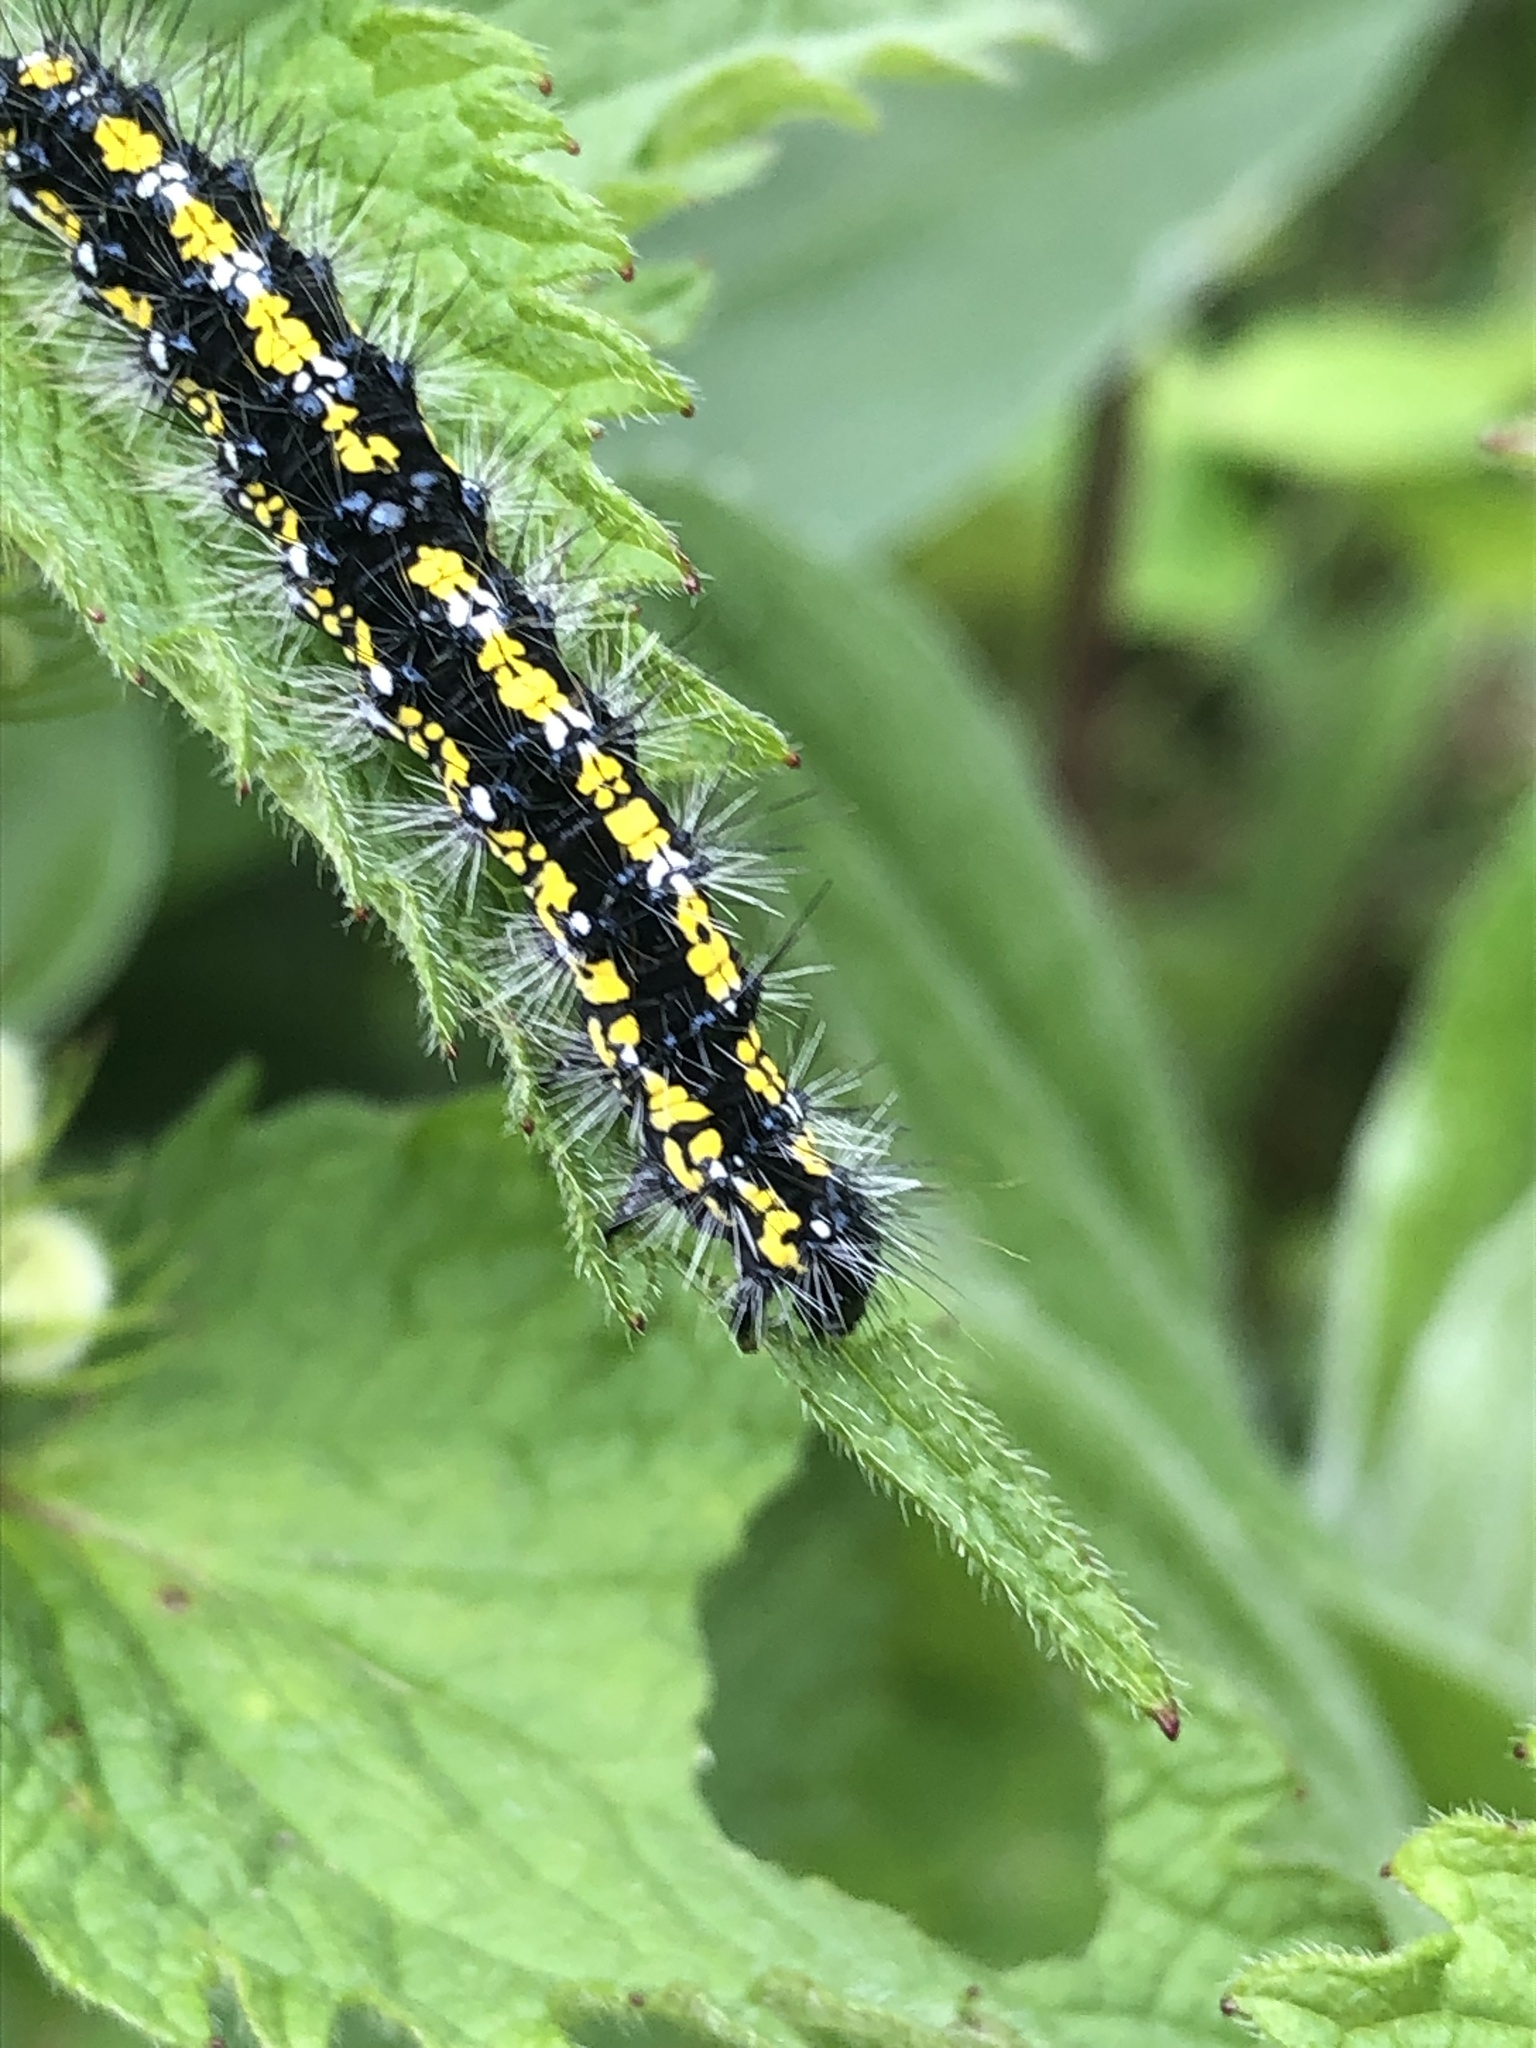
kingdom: Animalia
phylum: Arthropoda
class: Insecta
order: Lepidoptera
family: Erebidae
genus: Callimorpha
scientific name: Callimorpha dominula
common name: Scarlet tiger
